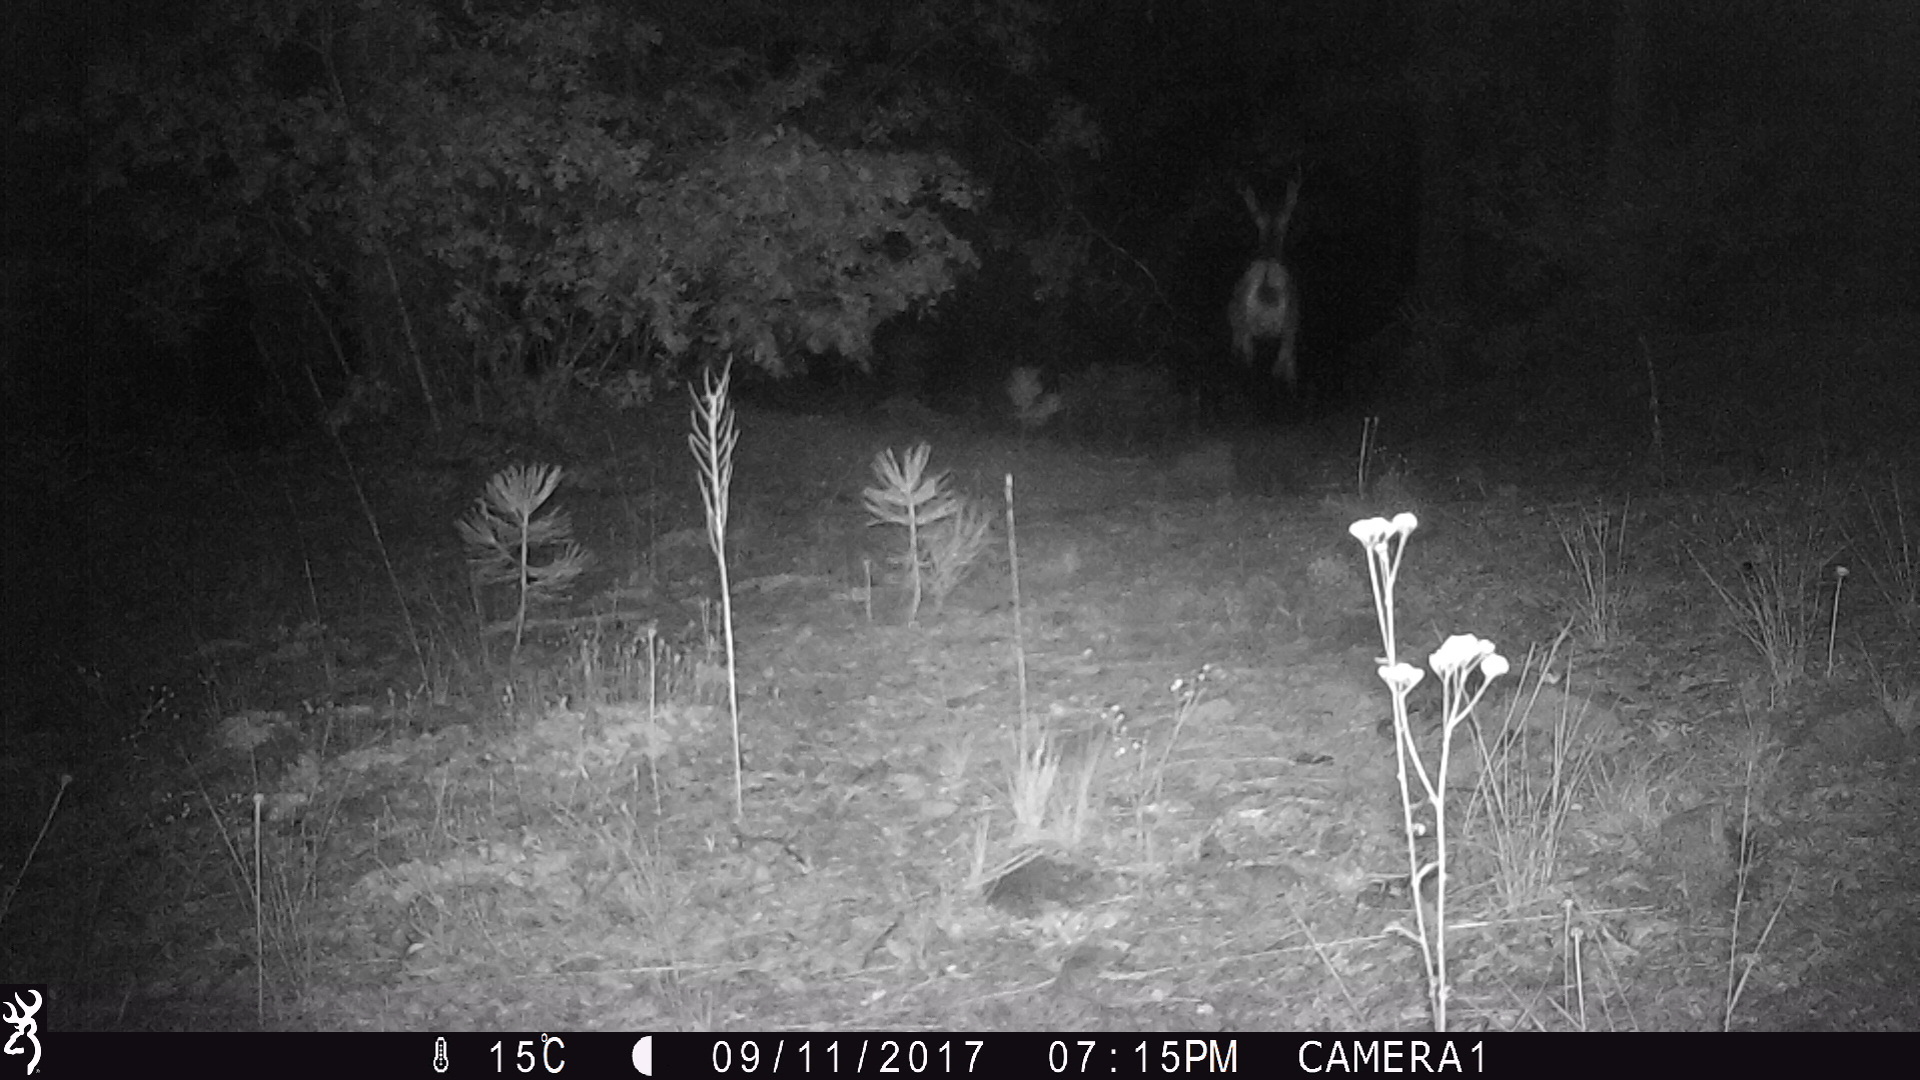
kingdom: Animalia
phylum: Chordata
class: Mammalia
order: Artiodactyla
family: Cervidae
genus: Odocoileus
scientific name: Odocoileus hemionus
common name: Mule deer
